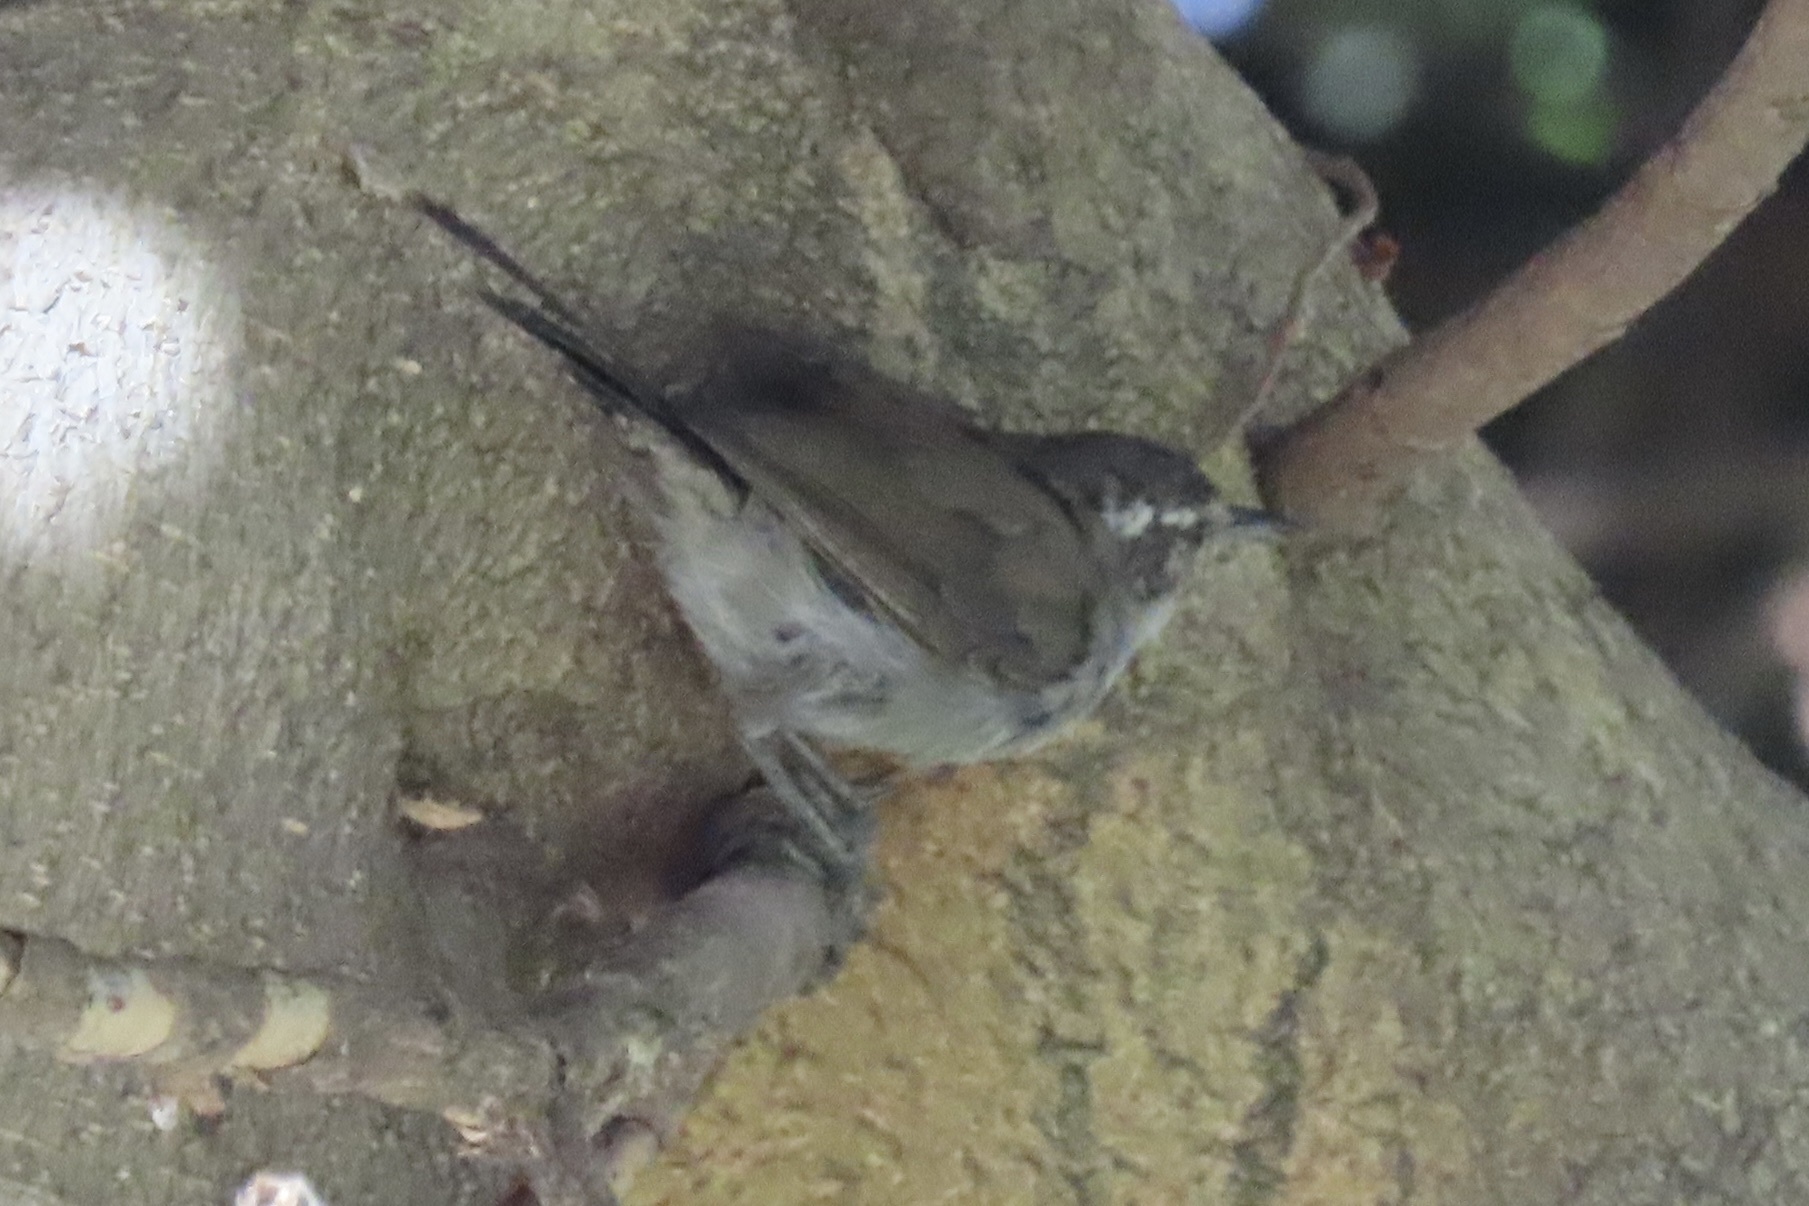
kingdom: Animalia
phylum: Chordata
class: Aves
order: Passeriformes
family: Troglodytidae
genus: Thryomanes
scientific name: Thryomanes bewickii
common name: Bewick's wren
